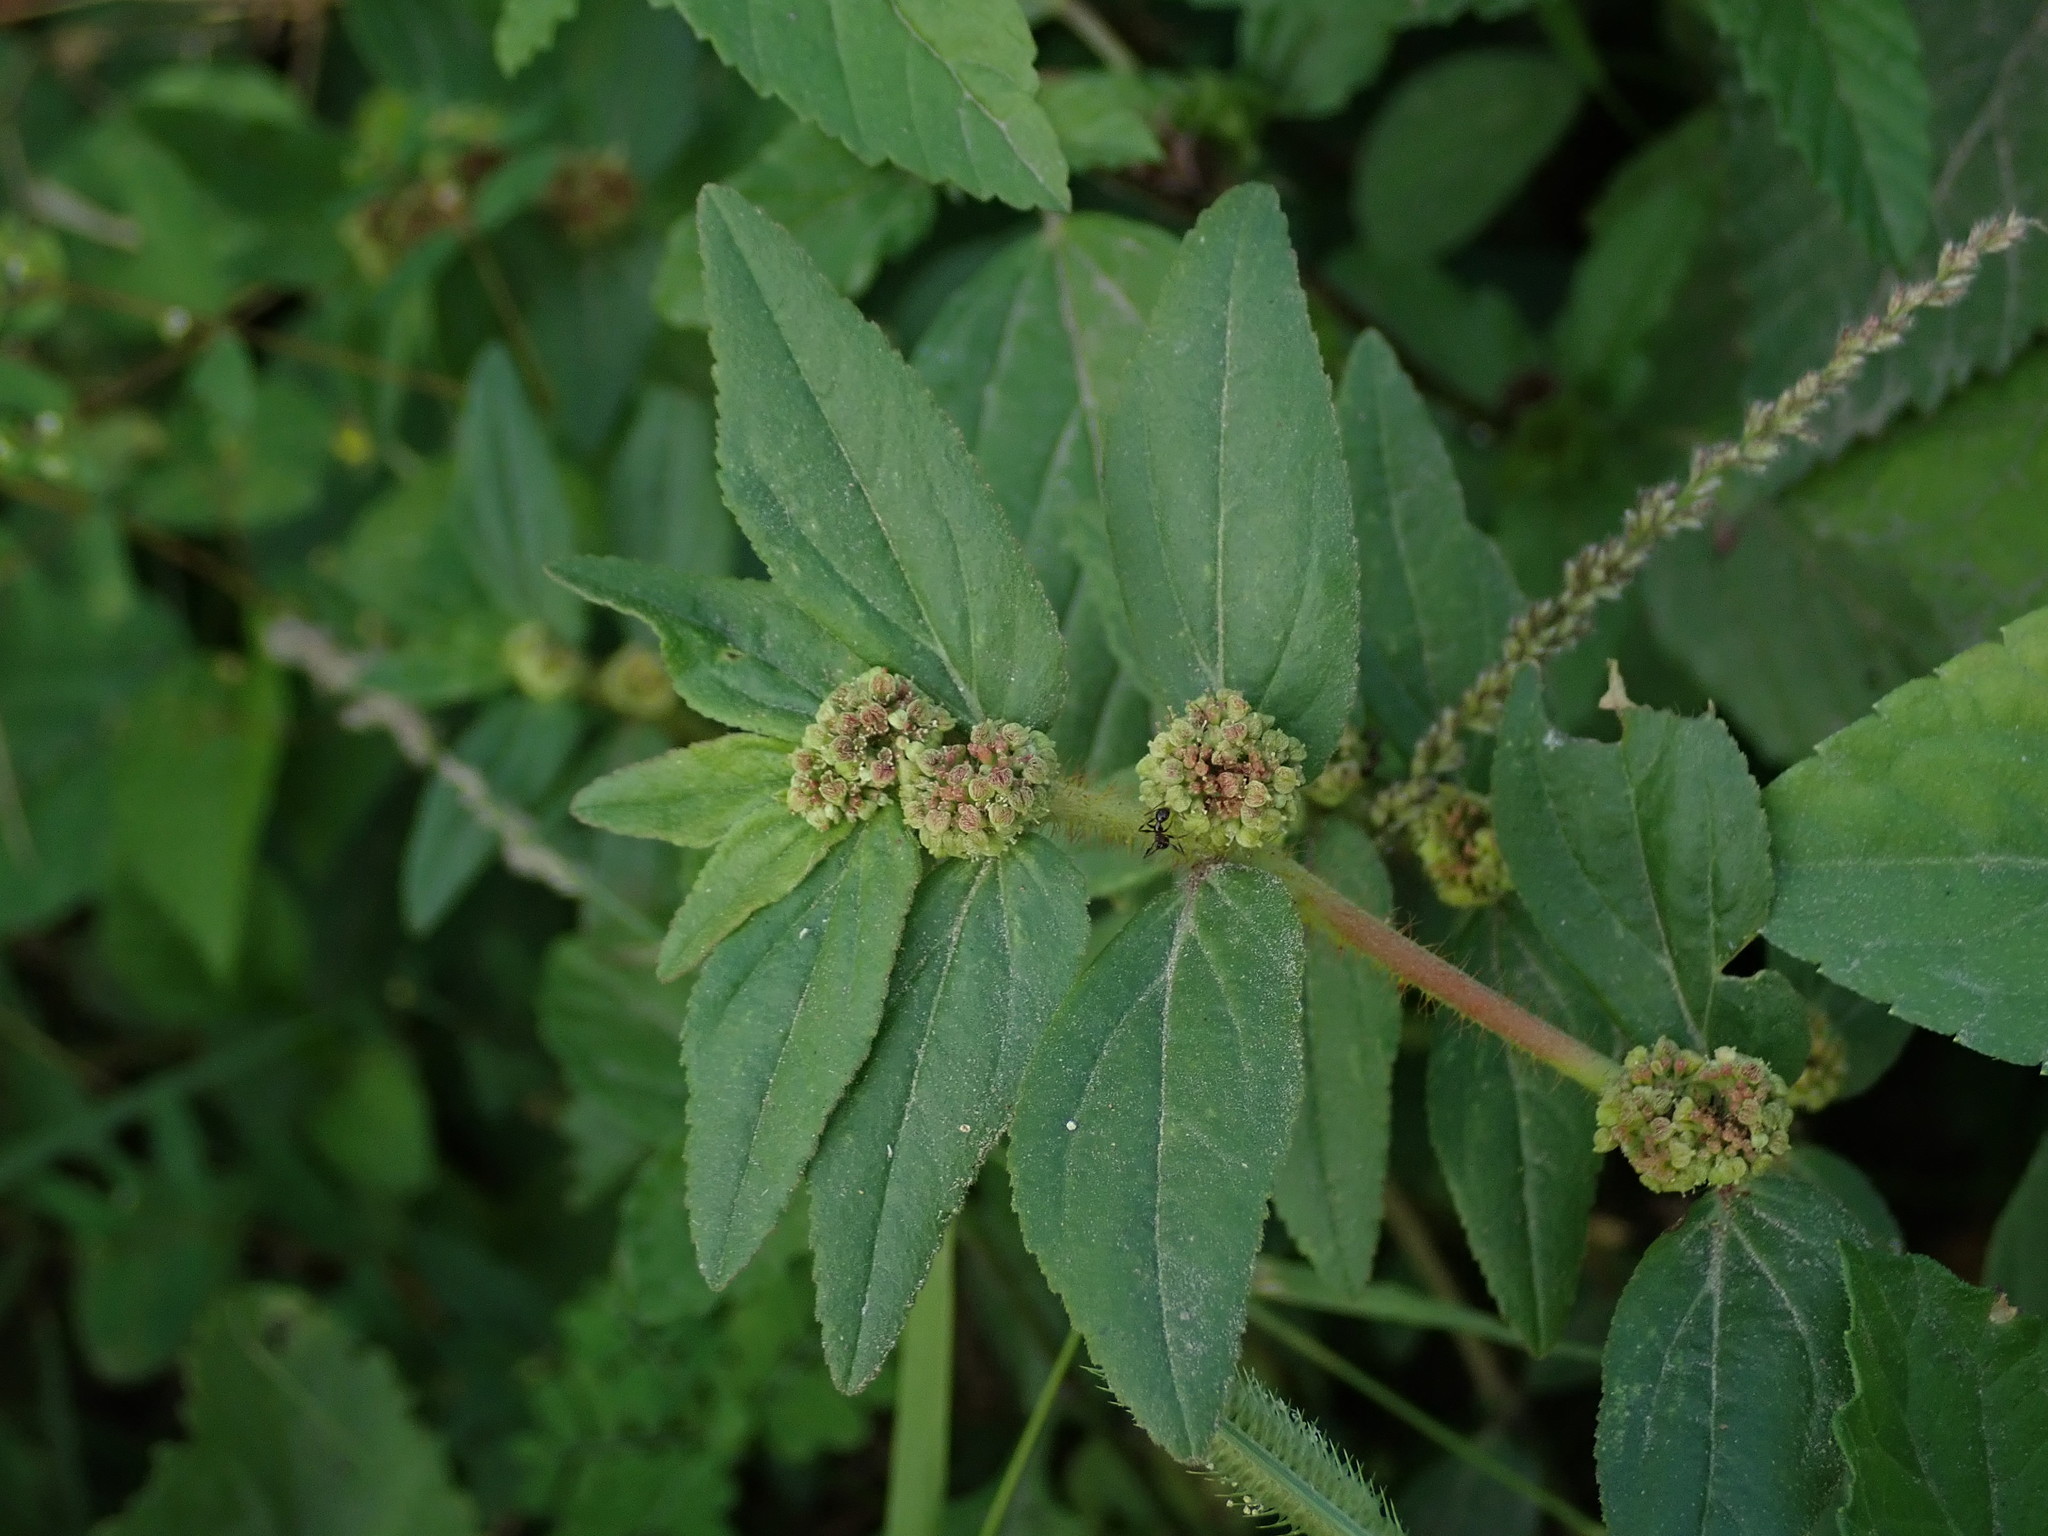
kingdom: Plantae
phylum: Tracheophyta
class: Magnoliopsida
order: Malpighiales
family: Euphorbiaceae
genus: Euphorbia
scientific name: Euphorbia hirta
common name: Pillpod sandmat
